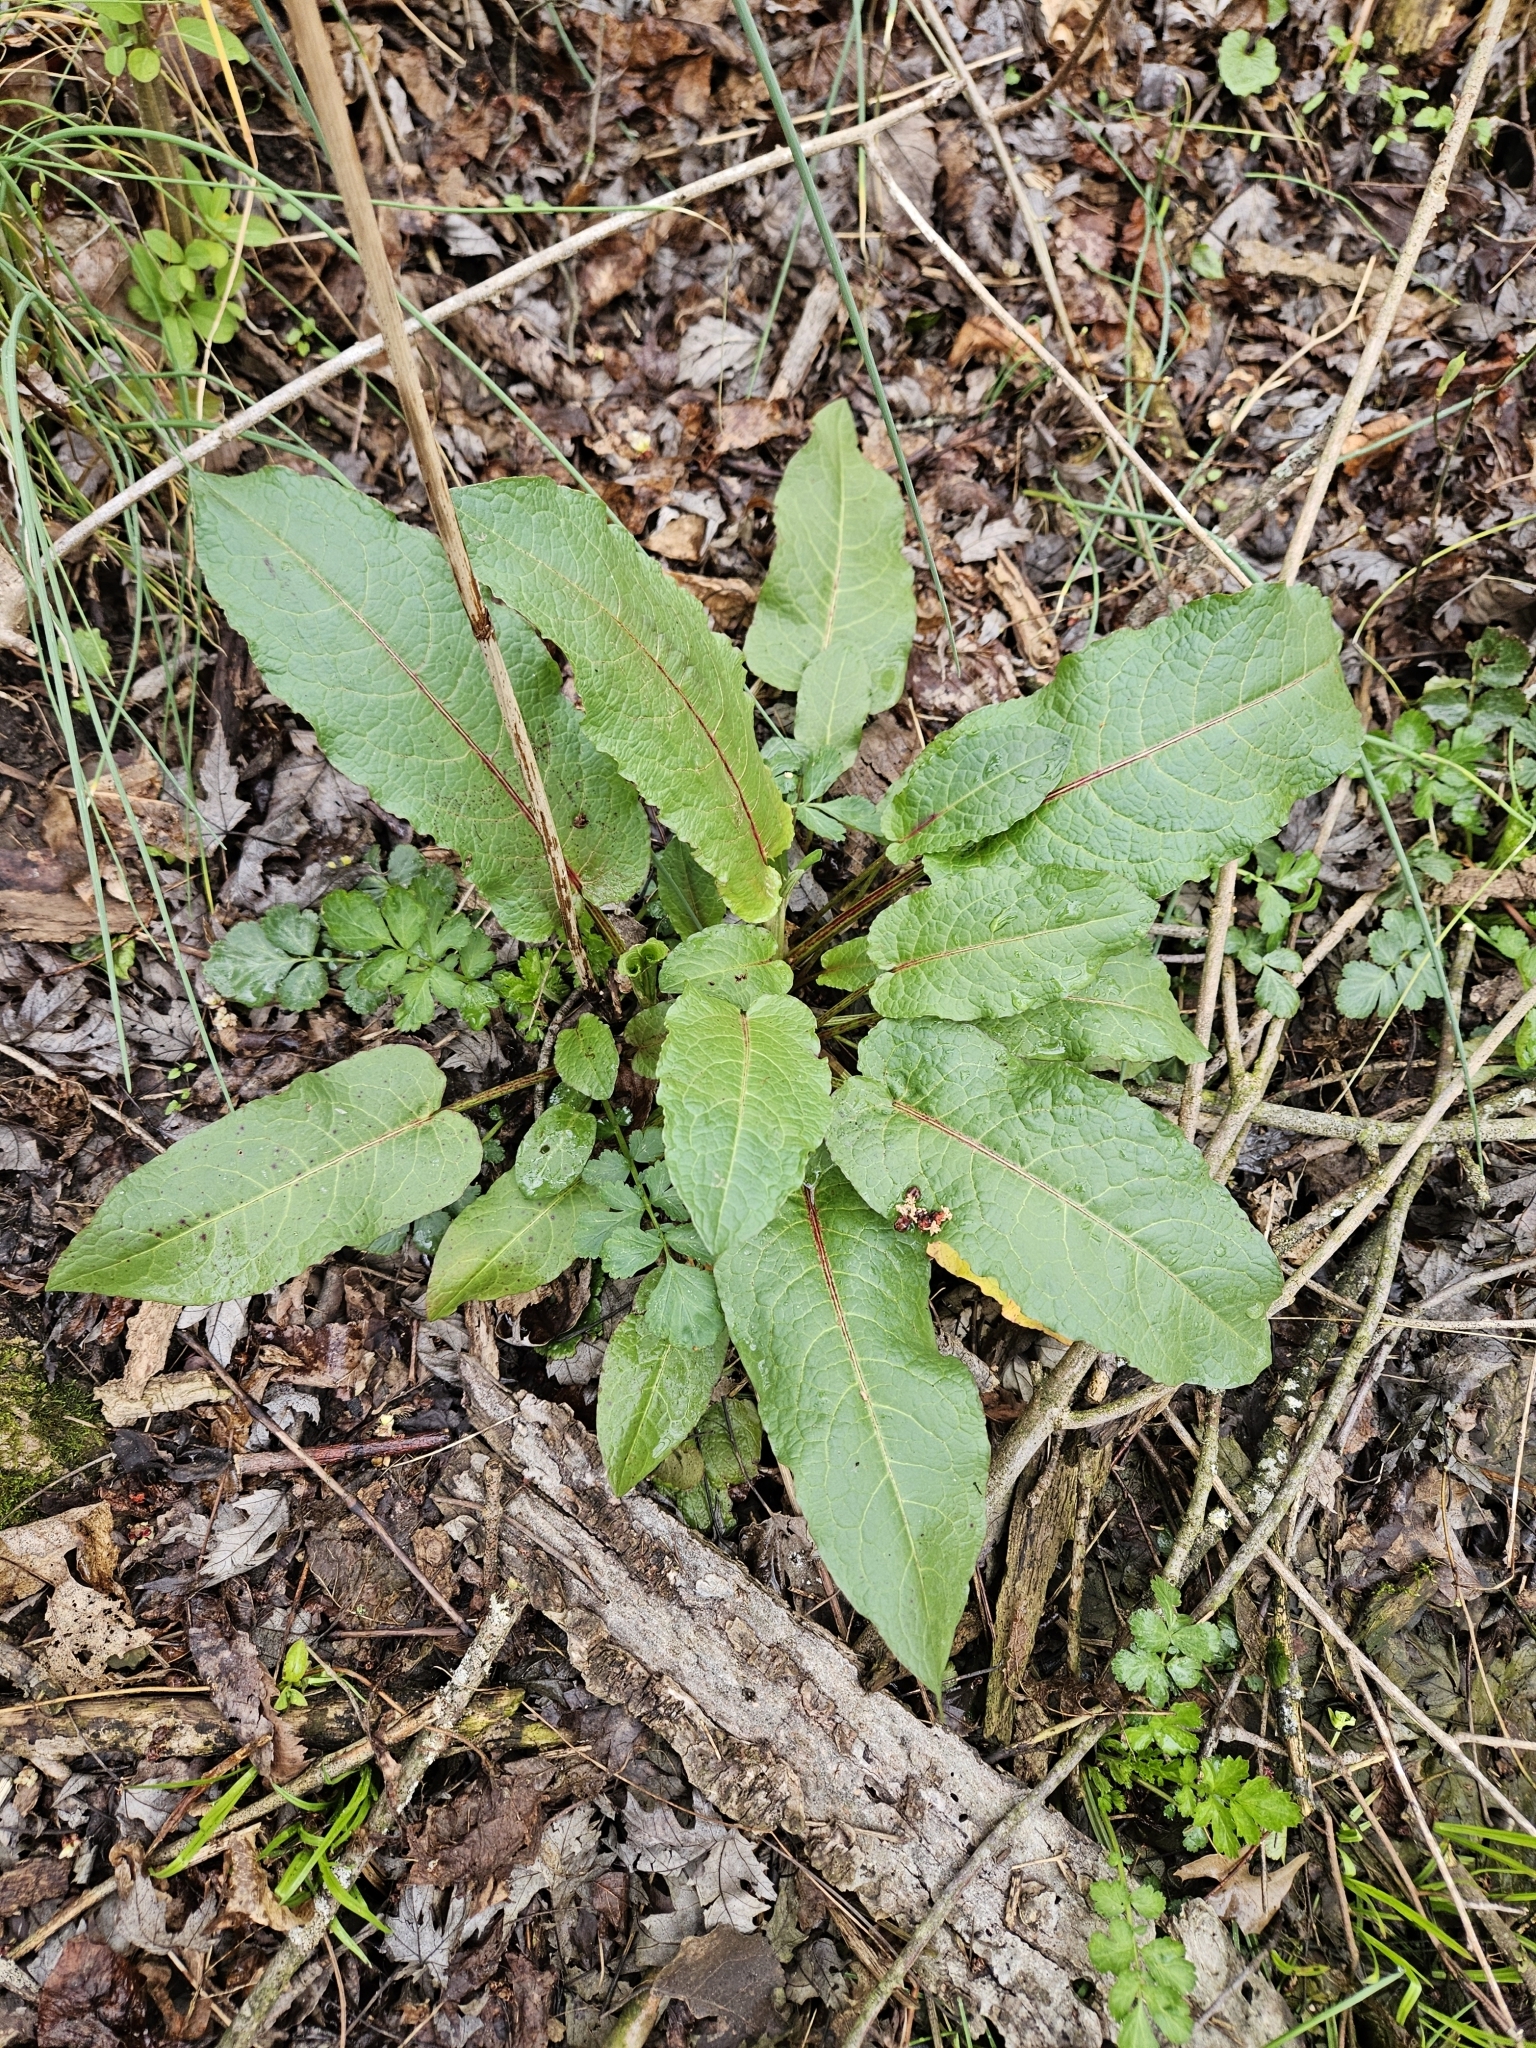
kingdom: Plantae
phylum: Tracheophyta
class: Magnoliopsida
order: Caryophyllales
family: Polygonaceae
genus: Rumex
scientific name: Rumex obtusifolius
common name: Bitter dock
